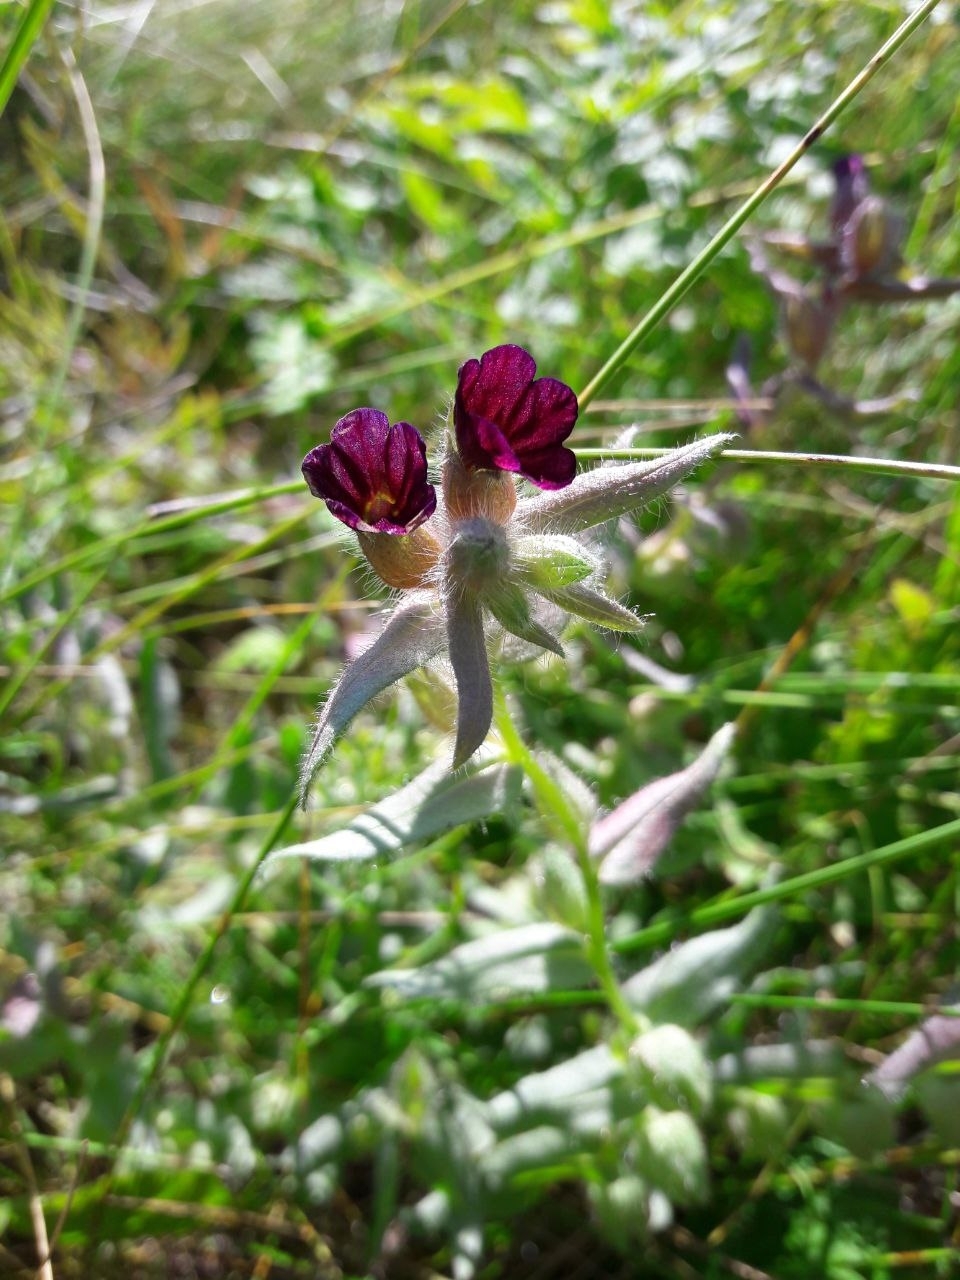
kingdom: Plantae
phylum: Tracheophyta
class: Magnoliopsida
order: Boraginales
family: Boraginaceae
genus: Nonea
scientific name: Nonea pulla
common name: Brown nonea
